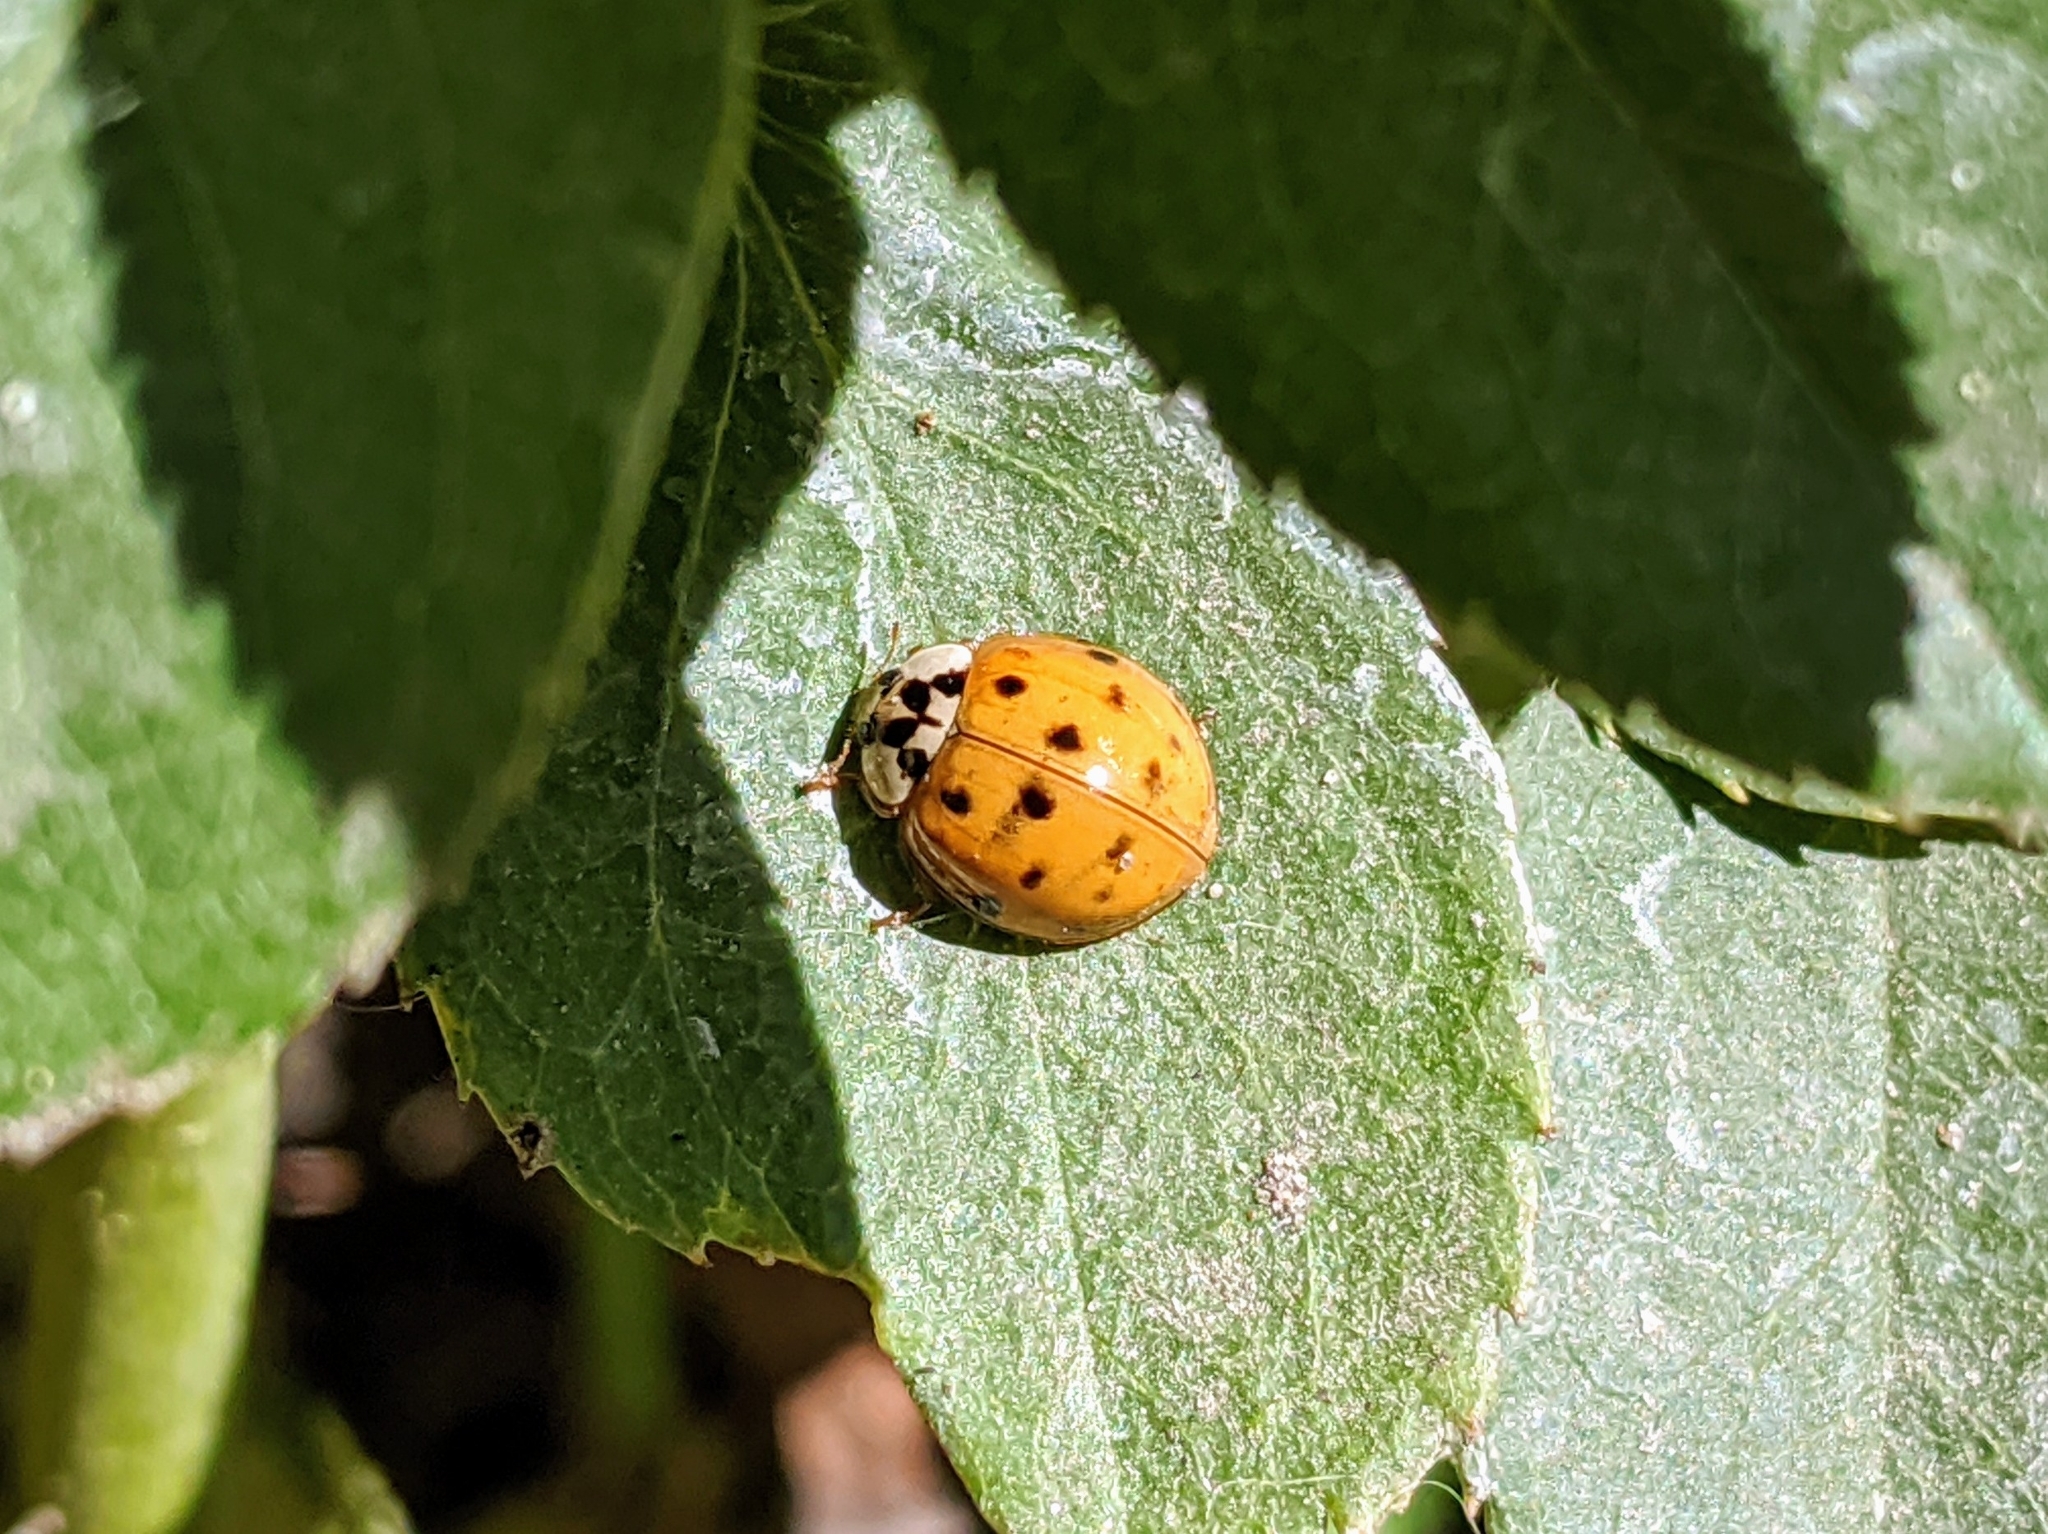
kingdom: Animalia
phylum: Arthropoda
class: Insecta
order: Coleoptera
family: Coccinellidae
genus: Harmonia
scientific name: Harmonia axyridis
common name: Harlequin ladybird
